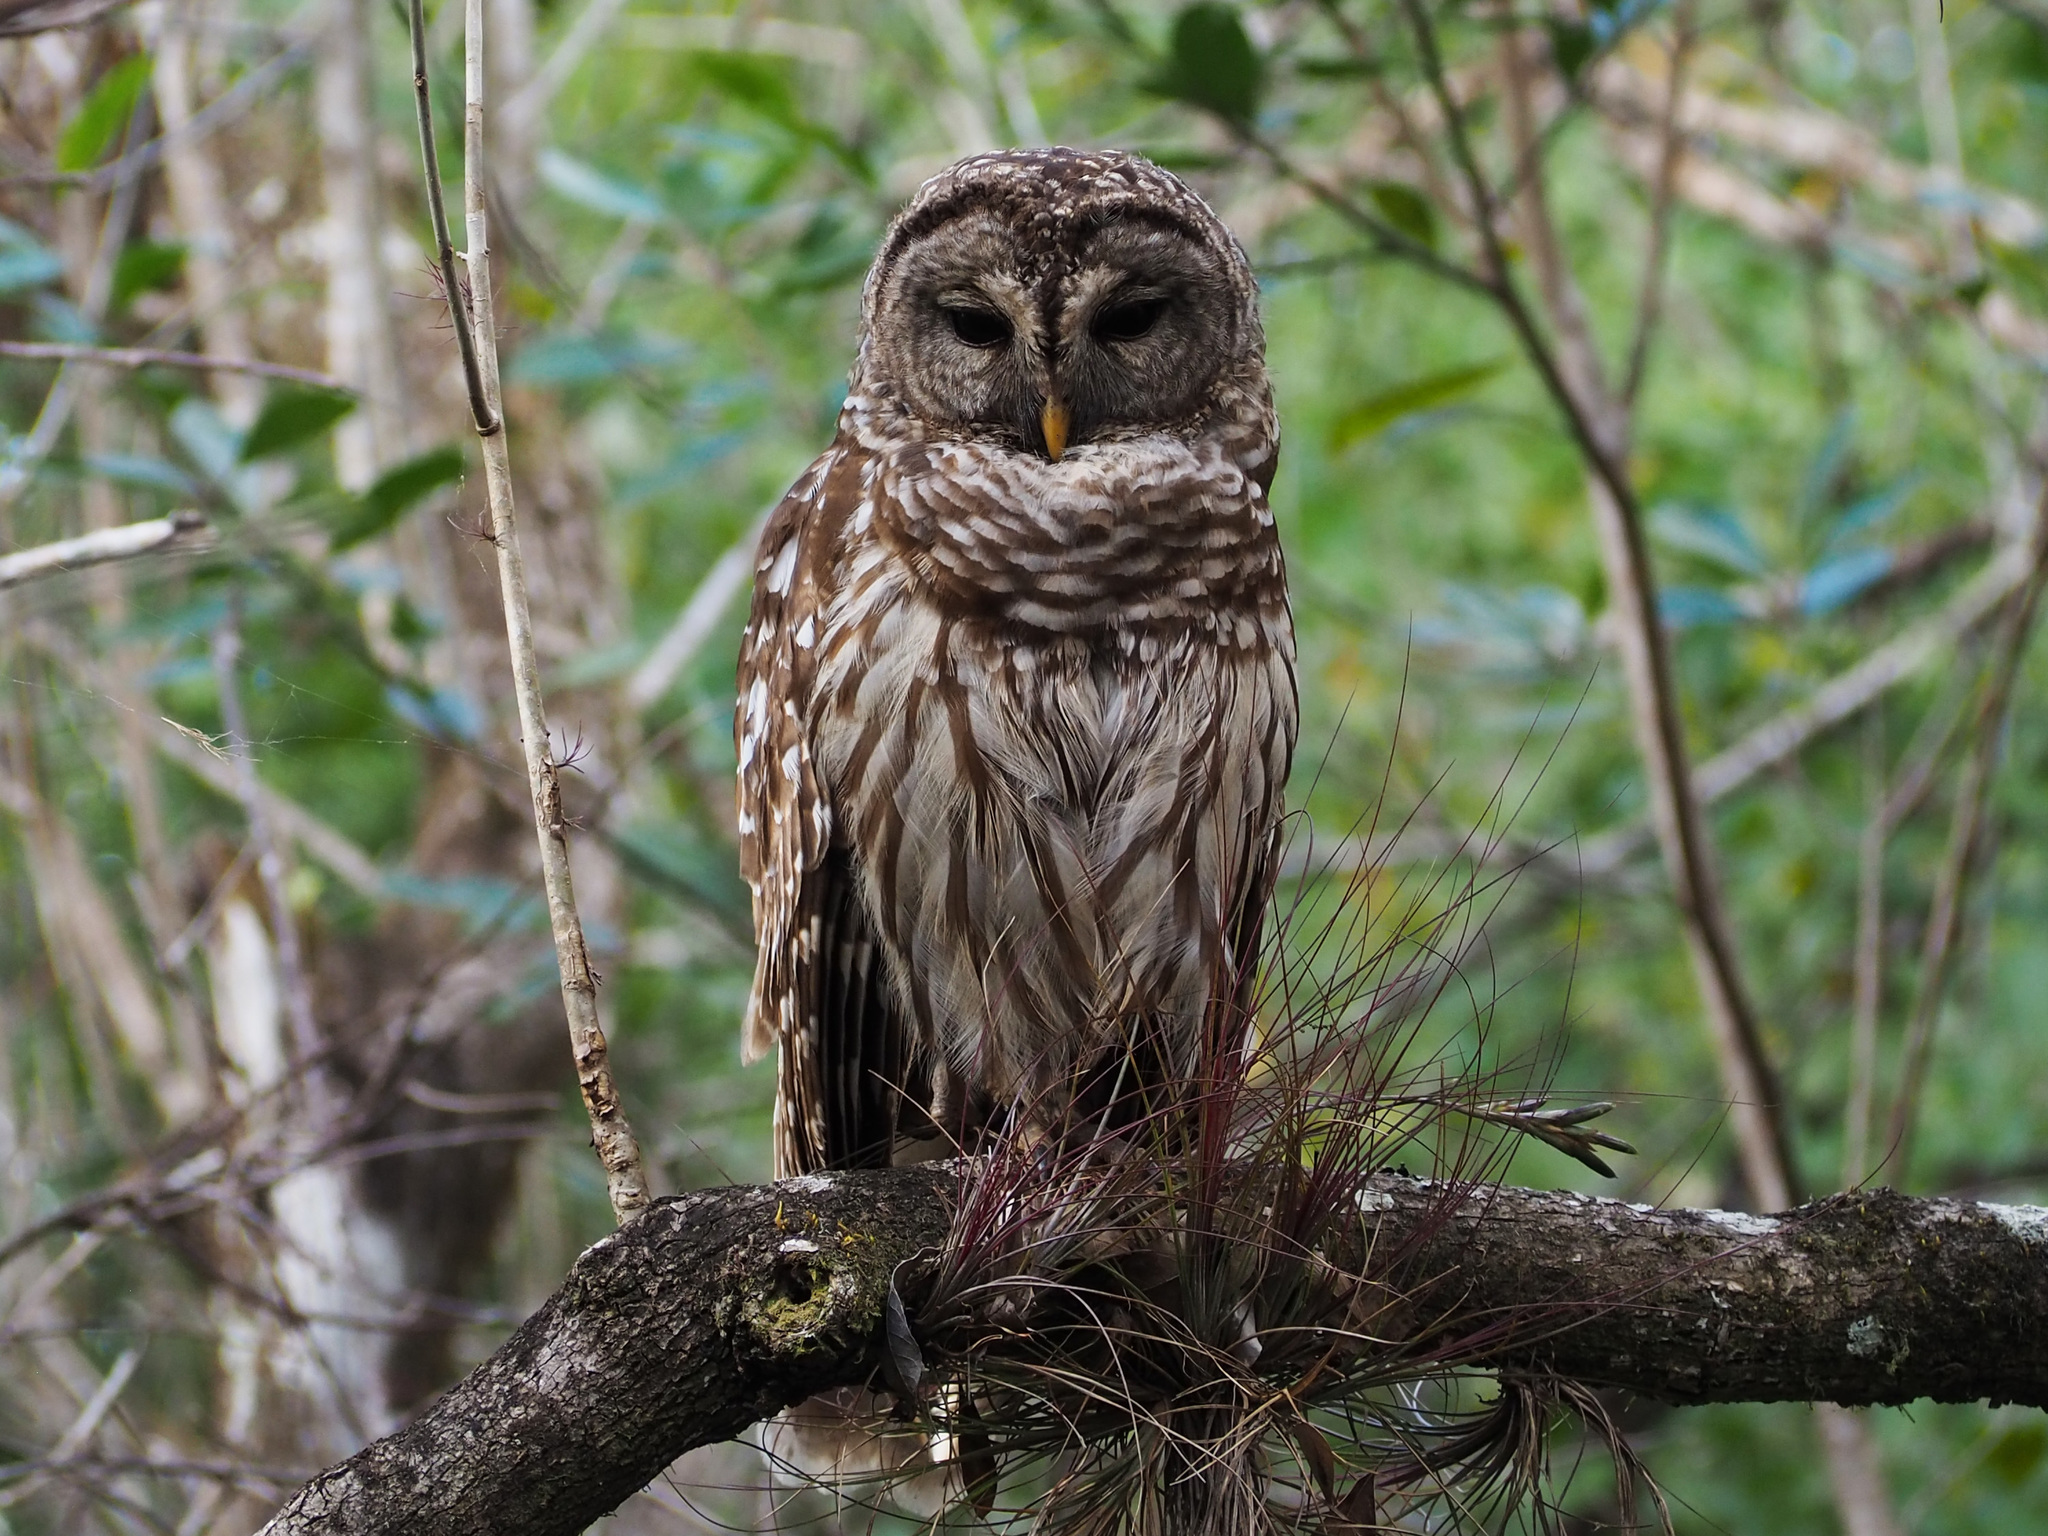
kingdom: Animalia
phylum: Chordata
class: Aves
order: Strigiformes
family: Strigidae
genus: Strix
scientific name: Strix varia
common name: Barred owl
